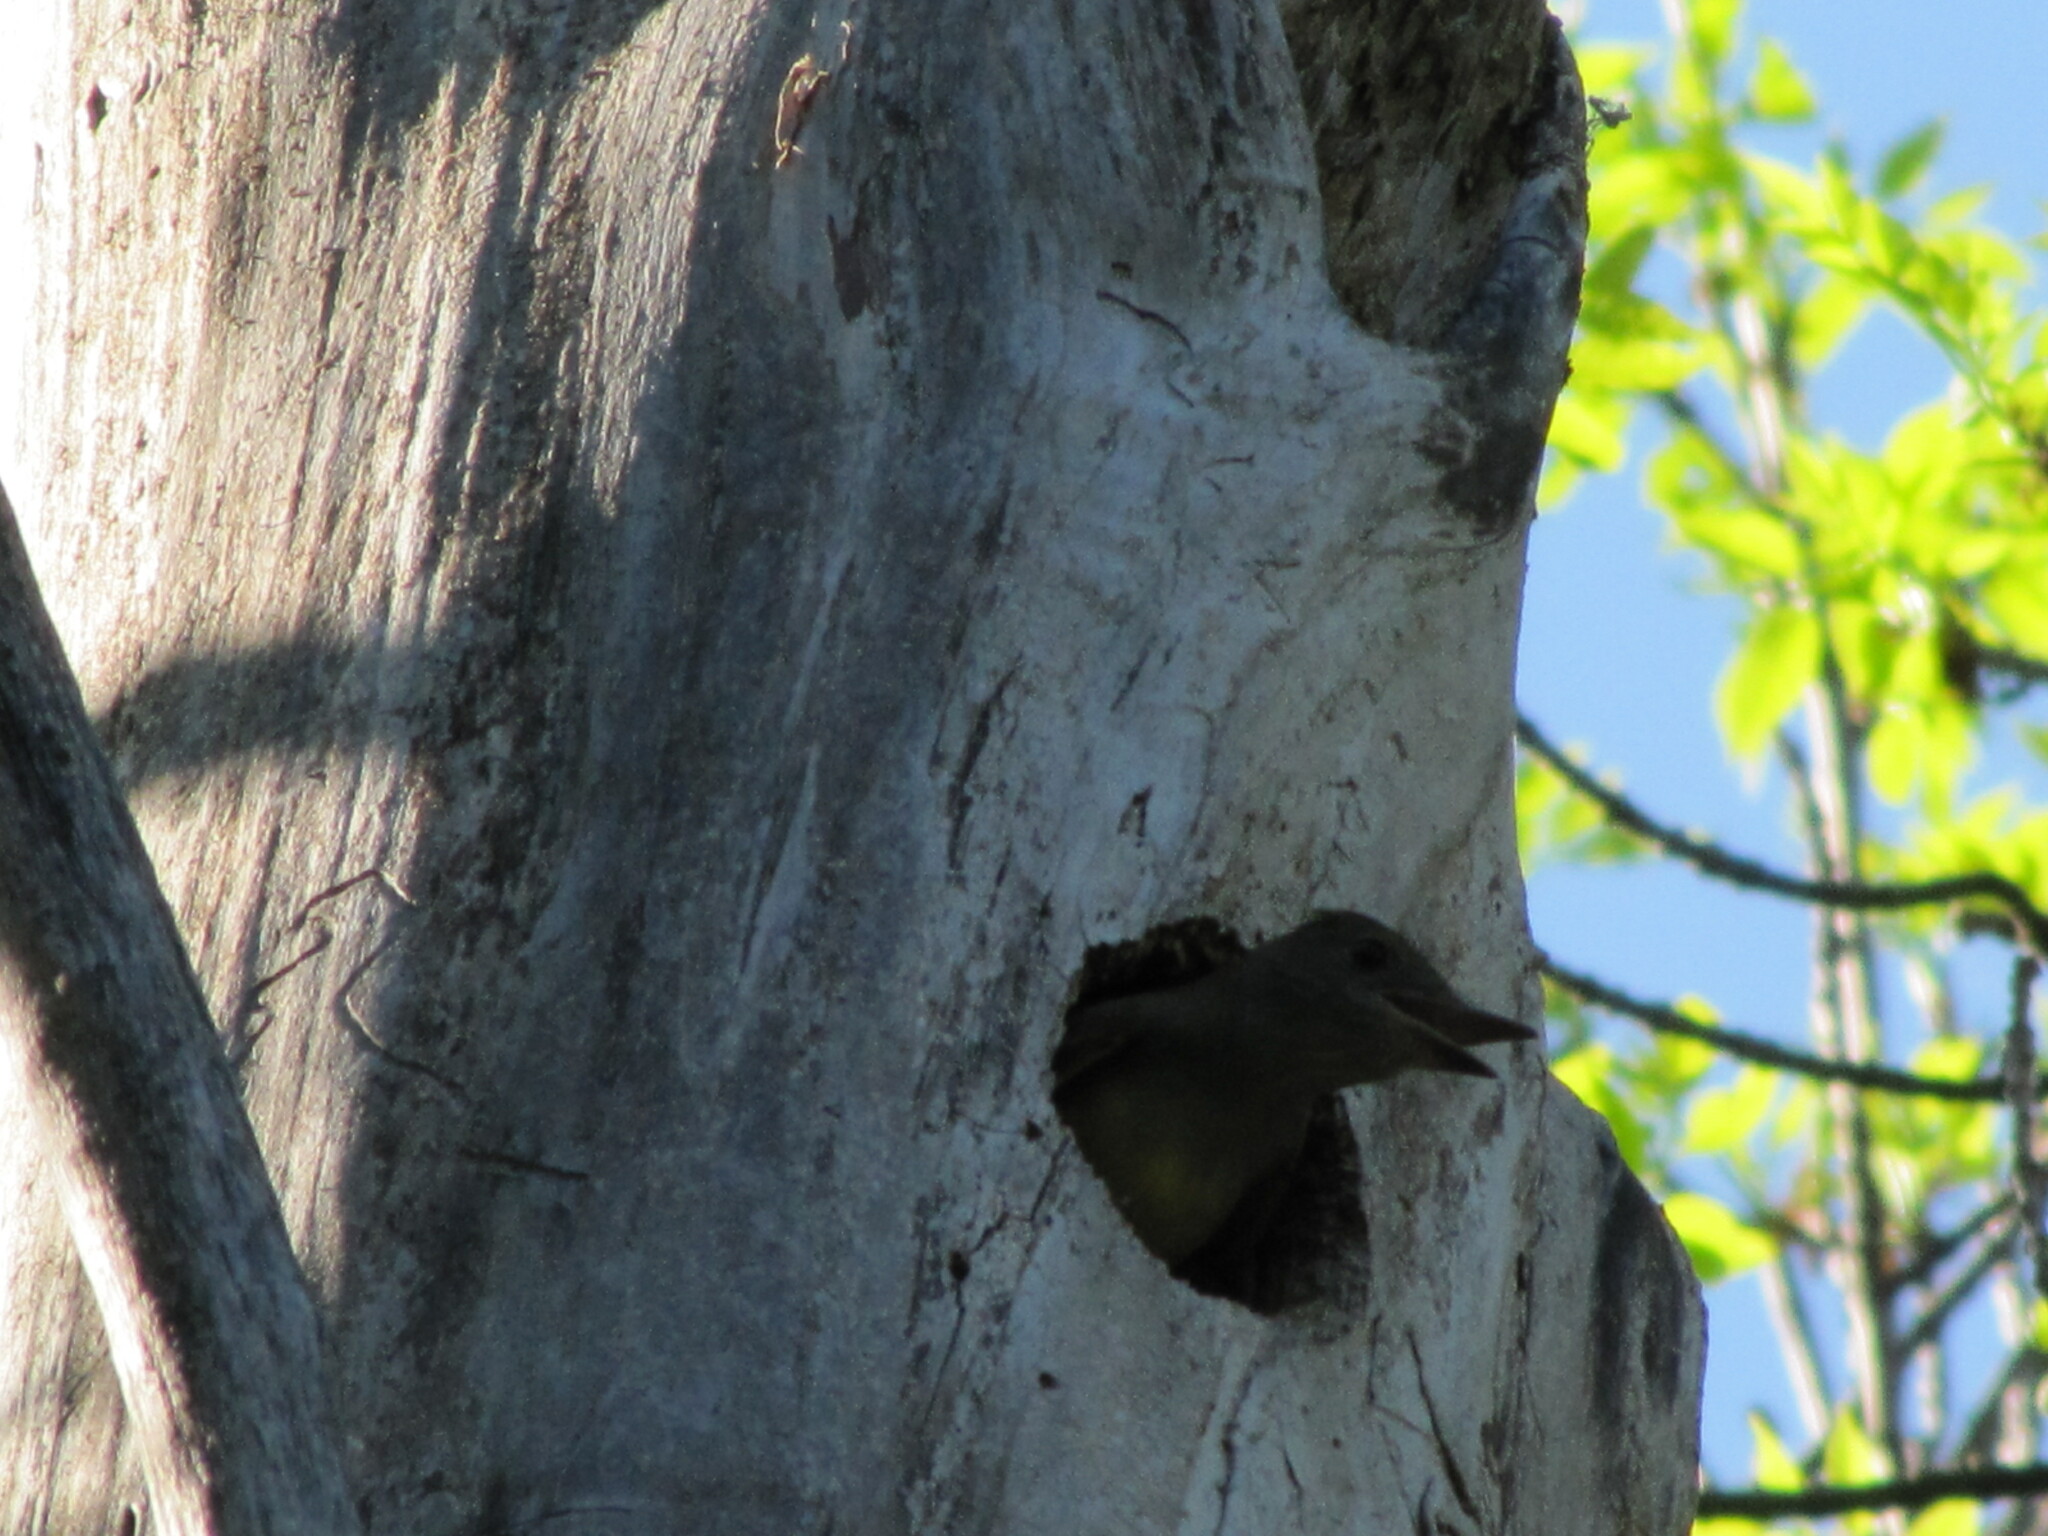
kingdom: Animalia
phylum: Chordata
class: Aves
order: Passeriformes
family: Tyrannidae
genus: Myiarchus
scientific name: Myiarchus crinitus
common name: Great crested flycatcher
